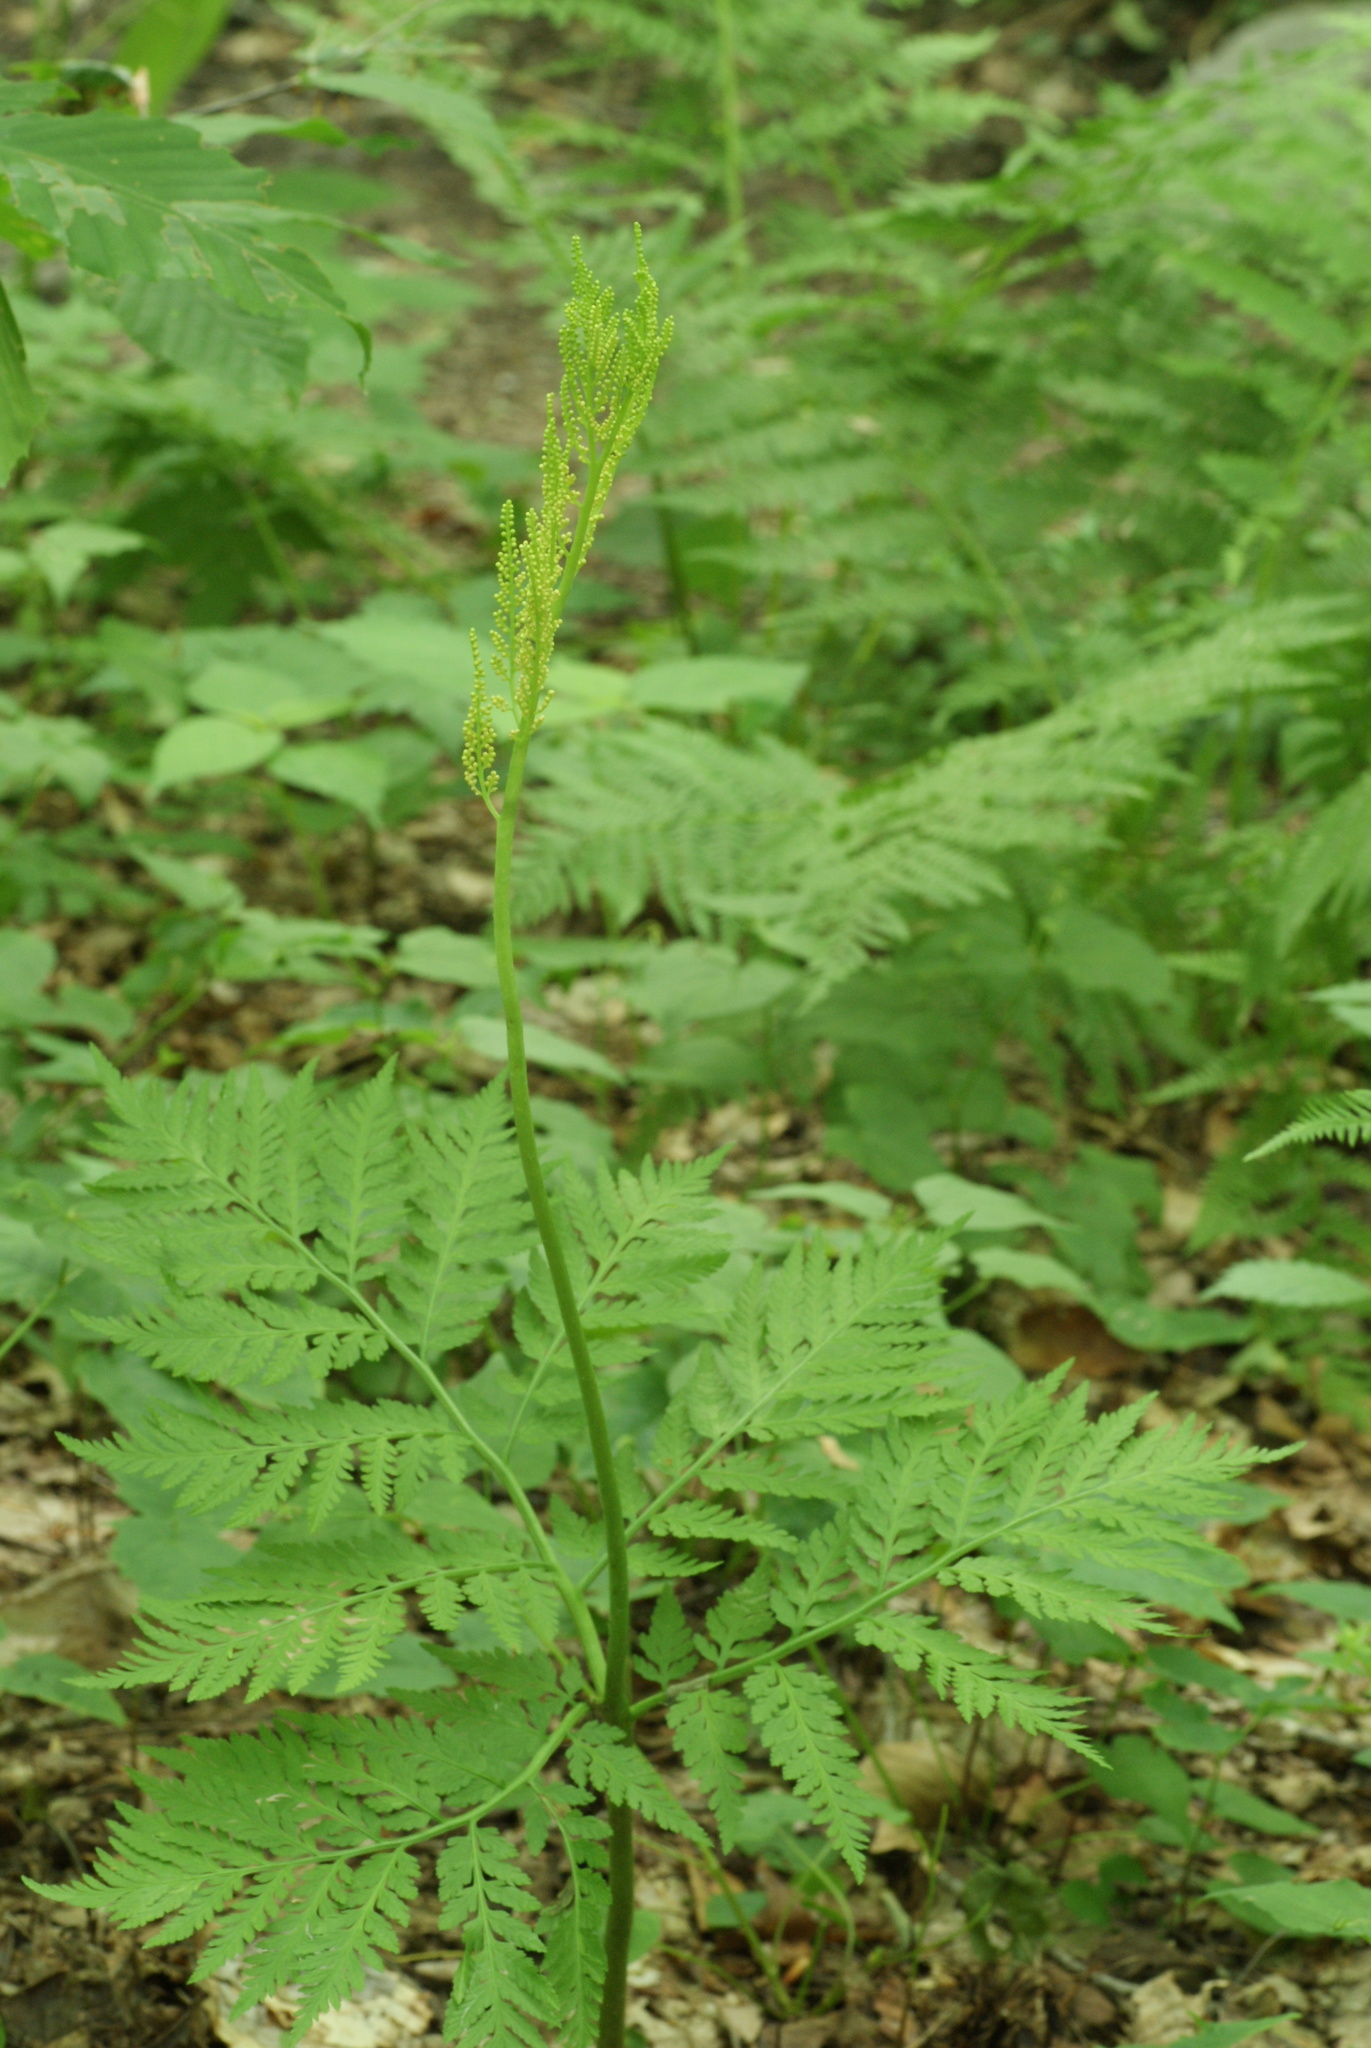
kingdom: Plantae
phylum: Tracheophyta
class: Polypodiopsida
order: Ophioglossales
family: Ophioglossaceae
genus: Botrypus
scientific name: Botrypus virginianus
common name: Common grapefern
